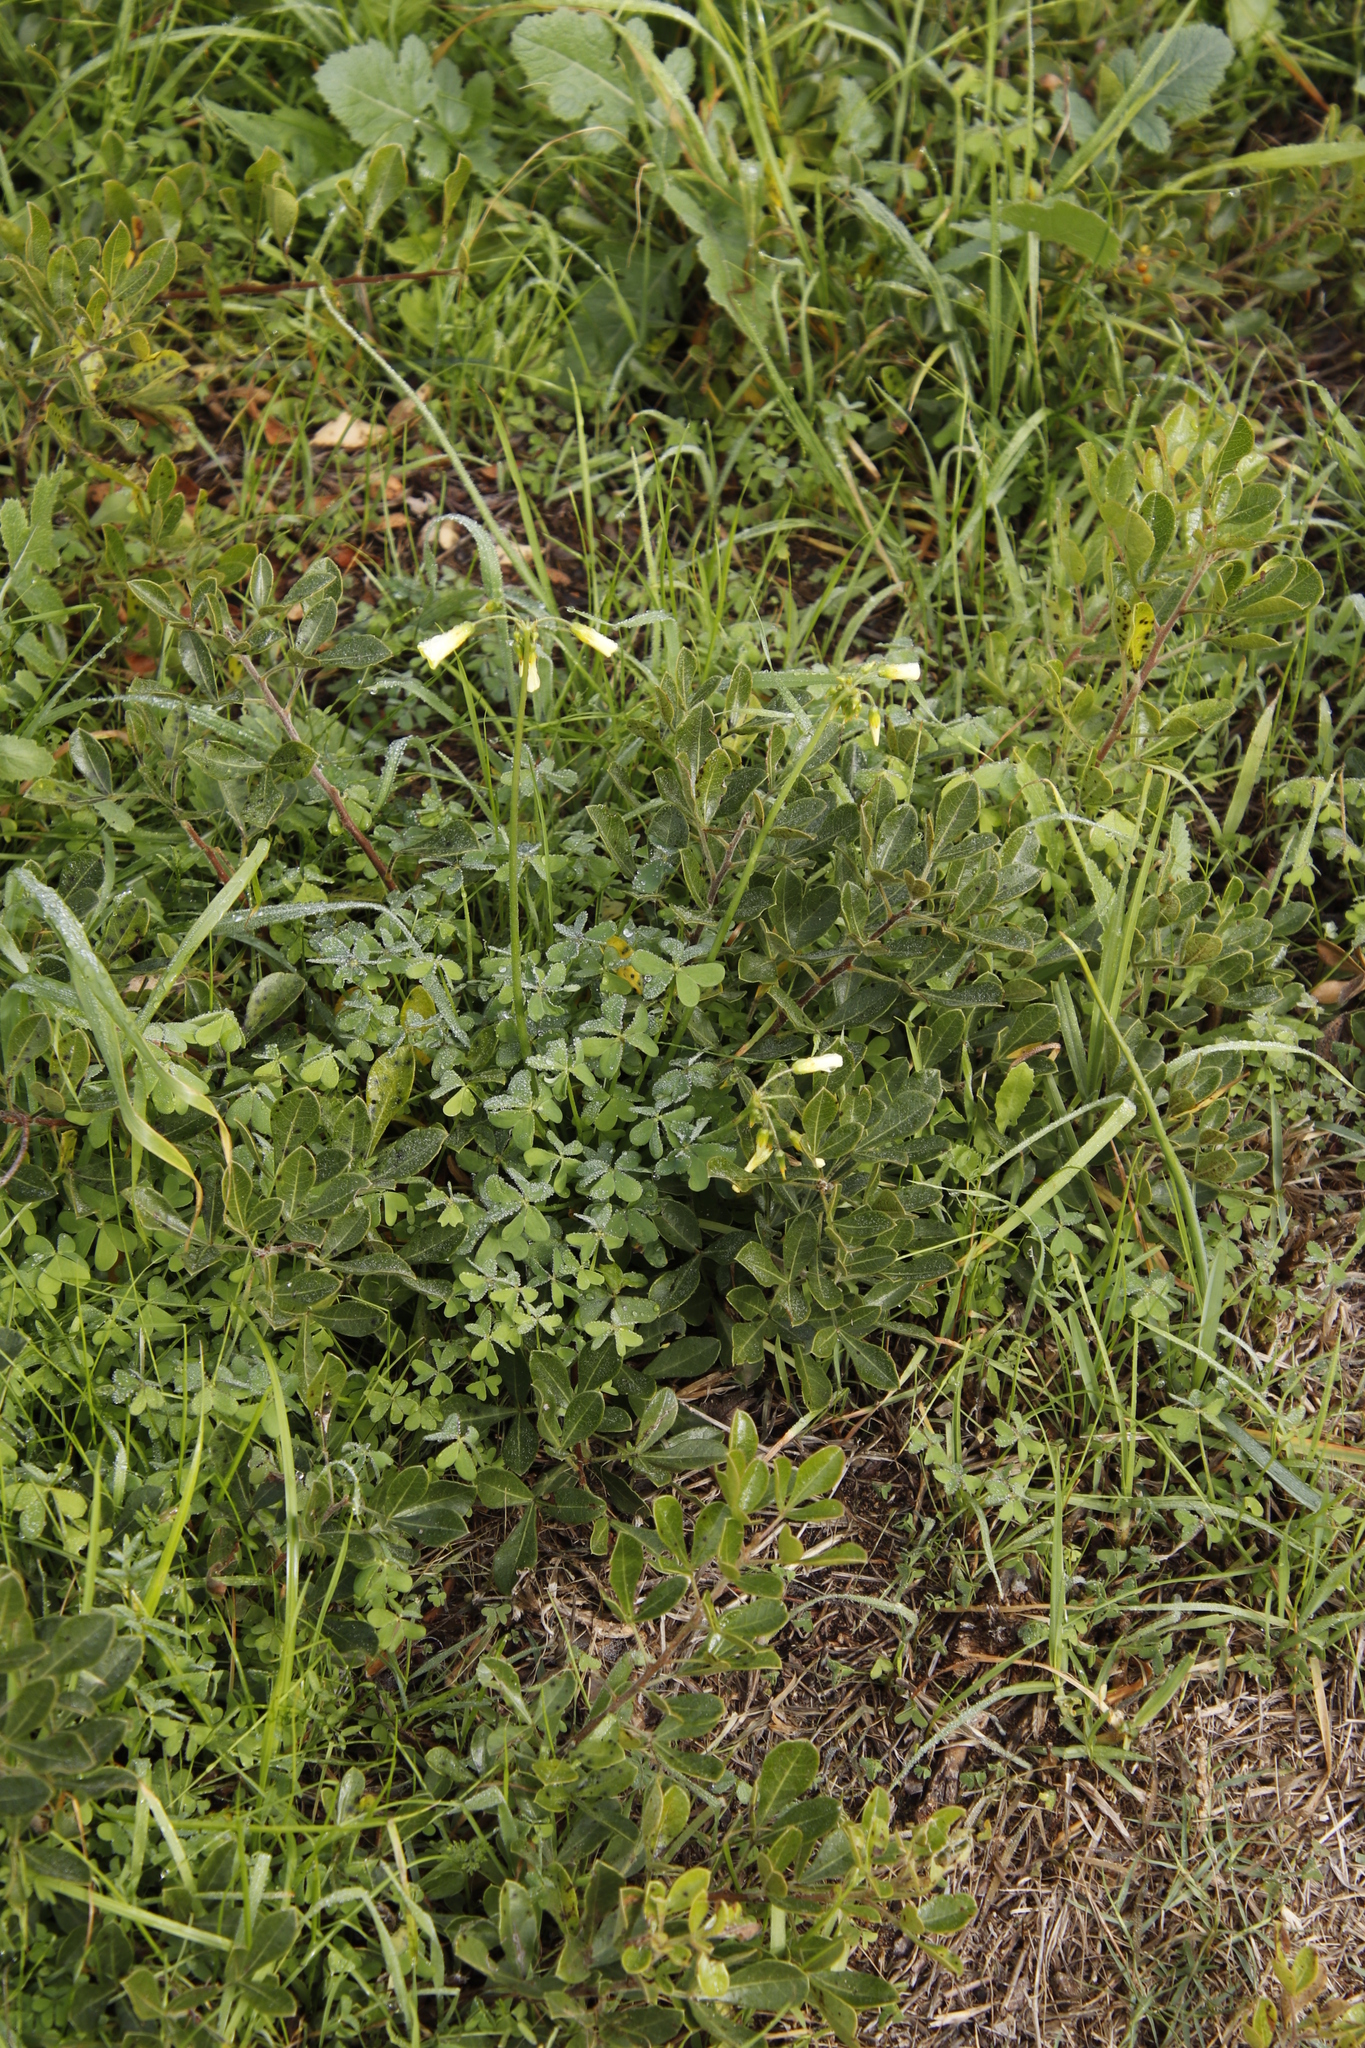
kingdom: Plantae
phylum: Tracheophyta
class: Magnoliopsida
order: Oxalidales
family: Oxalidaceae
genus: Oxalis
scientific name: Oxalis pes-caprae
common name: Bermuda-buttercup
